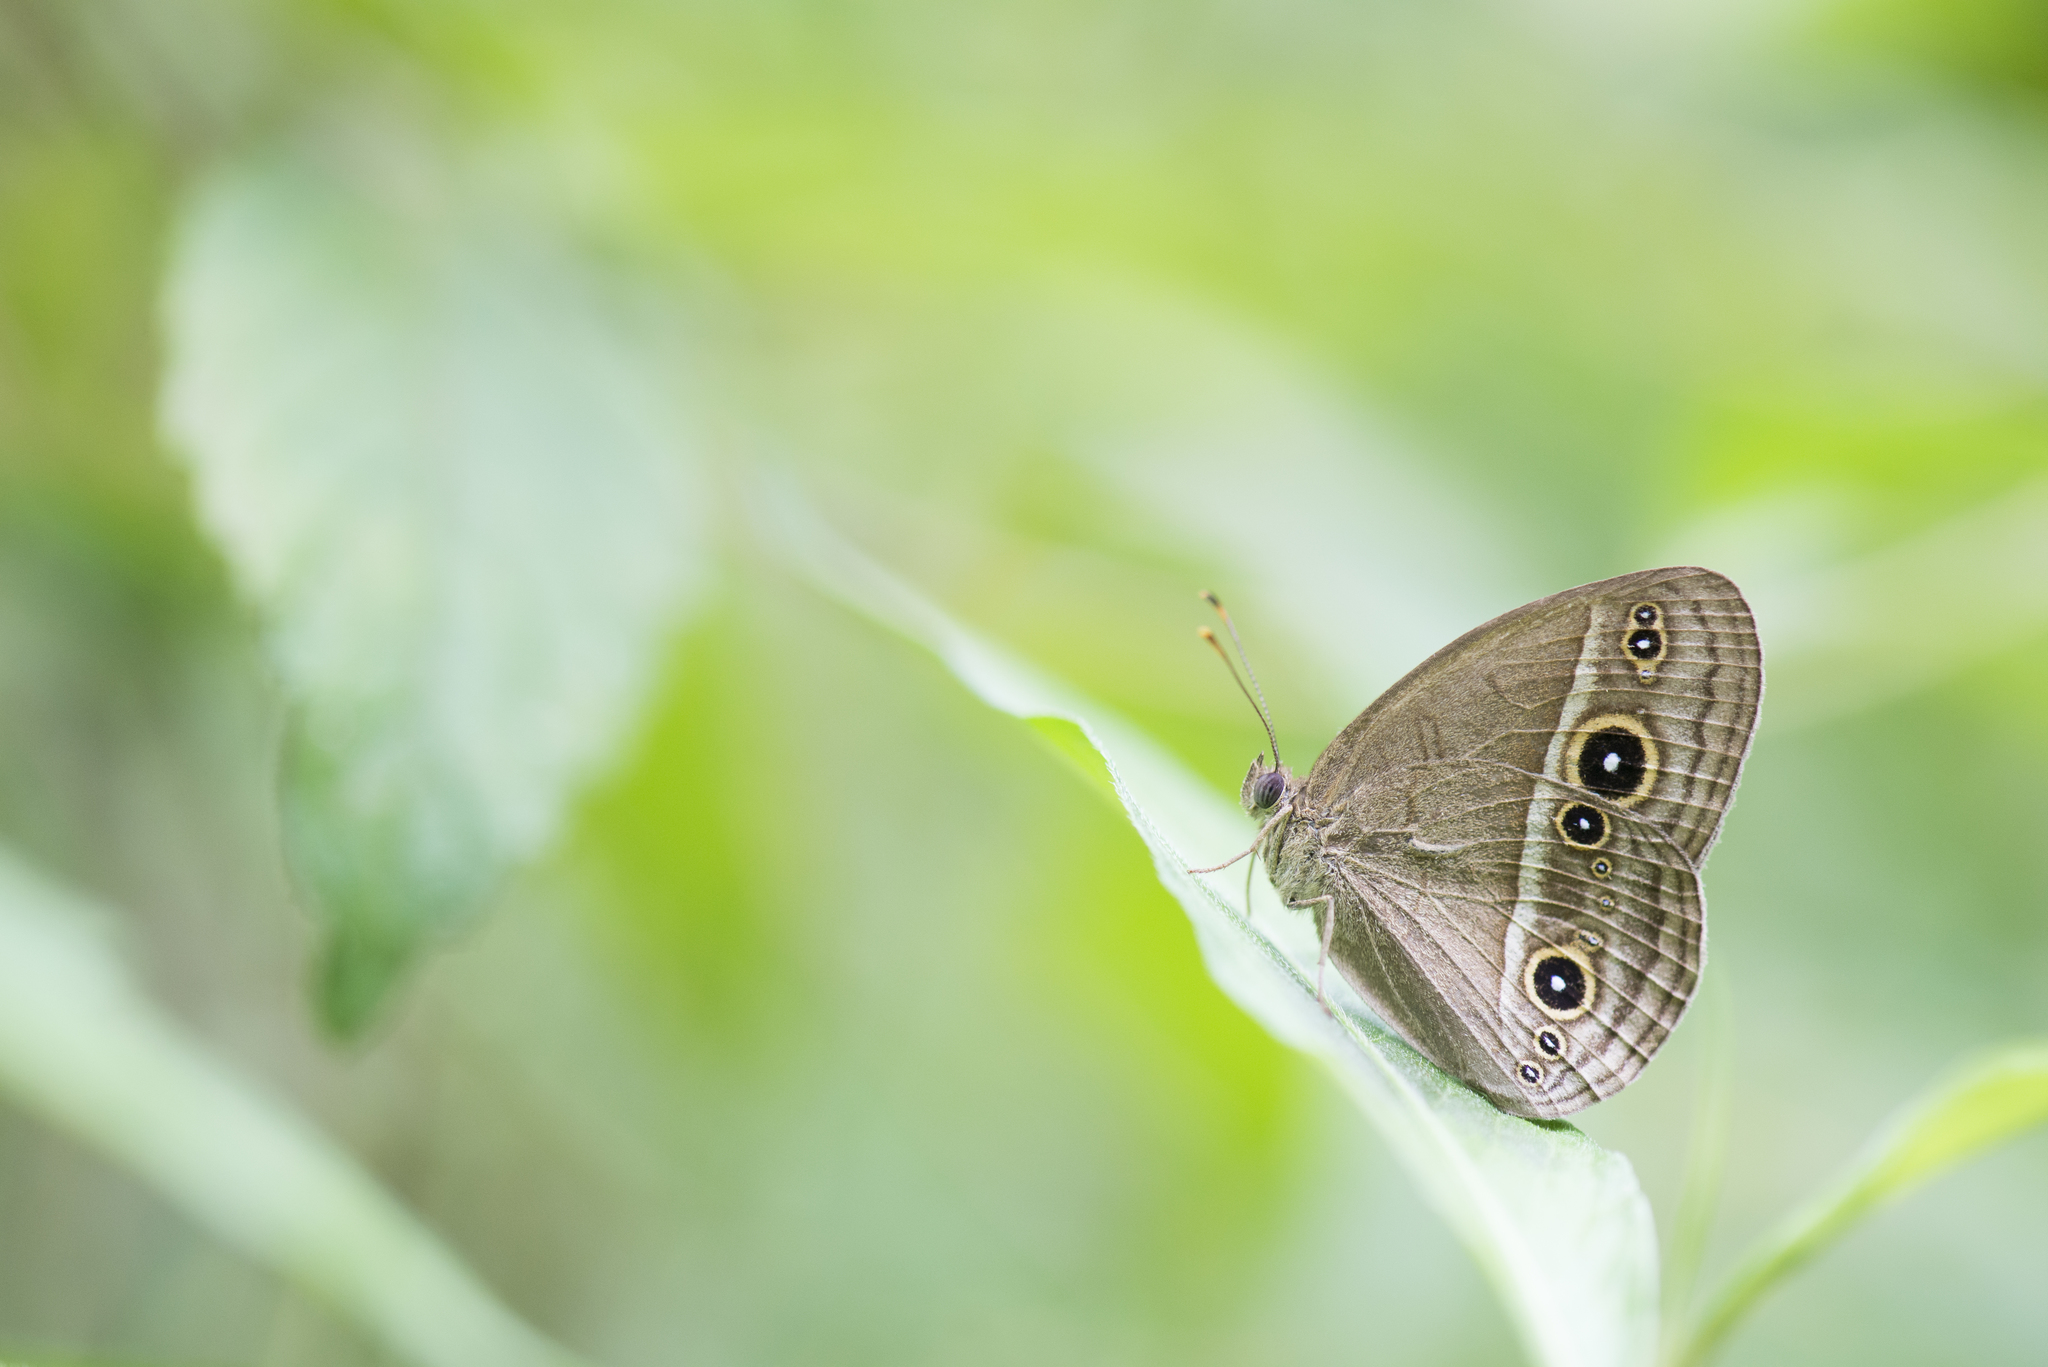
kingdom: Animalia
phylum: Arthropoda
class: Insecta
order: Lepidoptera
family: Nymphalidae
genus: Mycalesis
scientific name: Mycalesis gotama
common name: Chinese bushbrown
